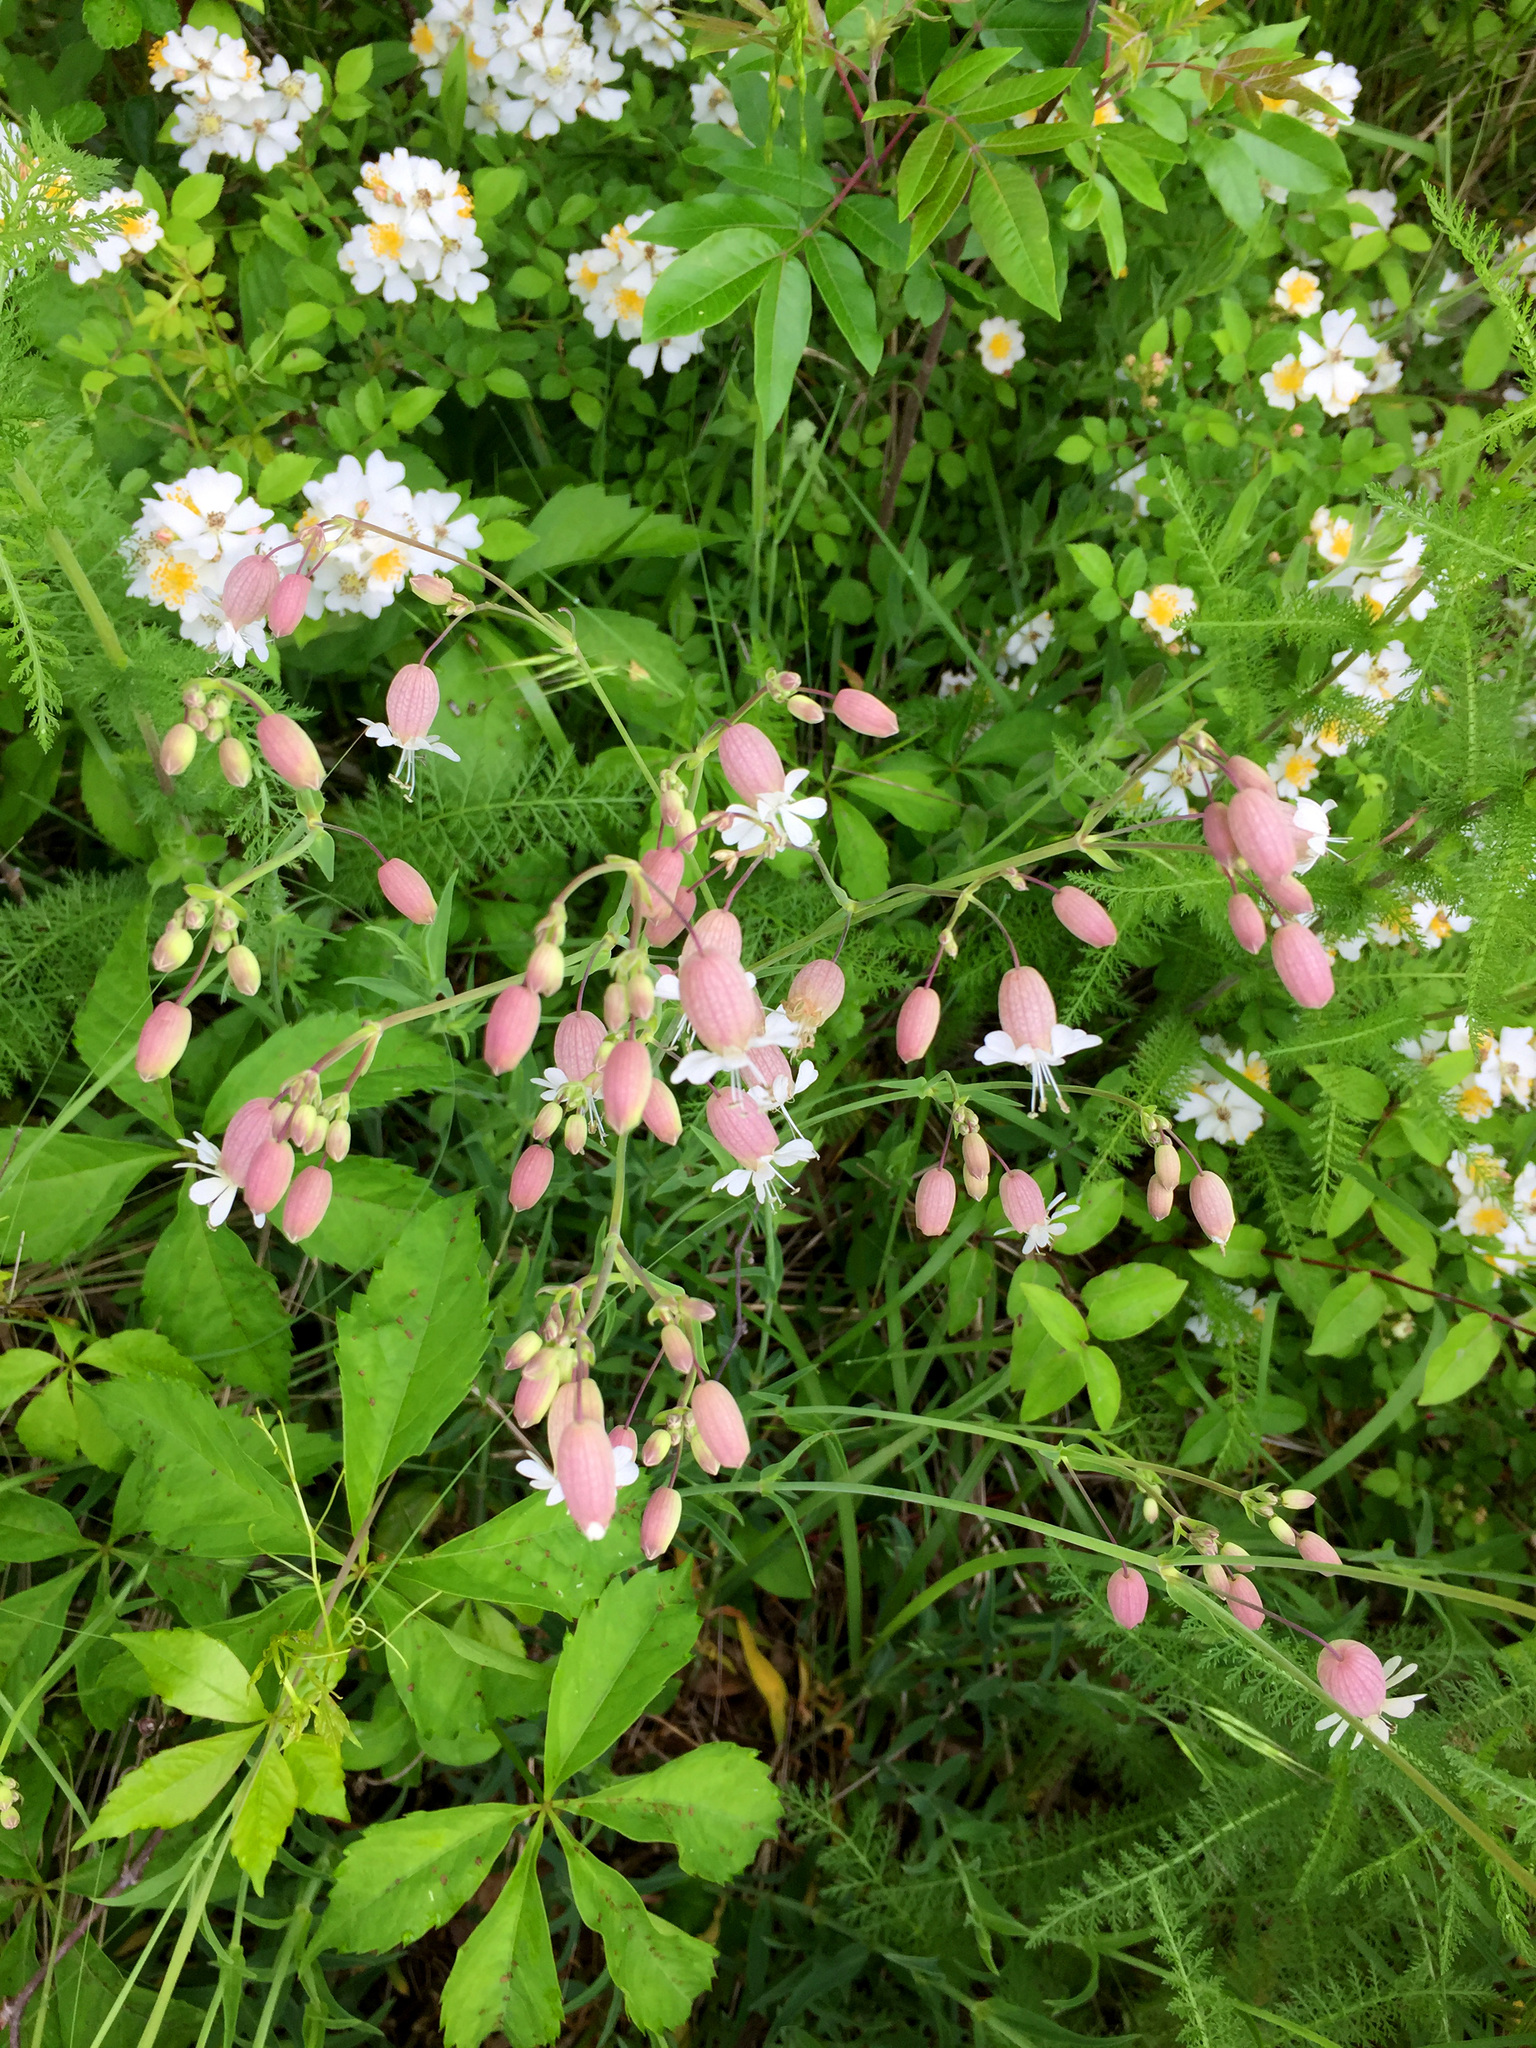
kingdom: Plantae
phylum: Tracheophyta
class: Magnoliopsida
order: Caryophyllales
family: Caryophyllaceae
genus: Silene
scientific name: Silene vulgaris
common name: Bladder campion
